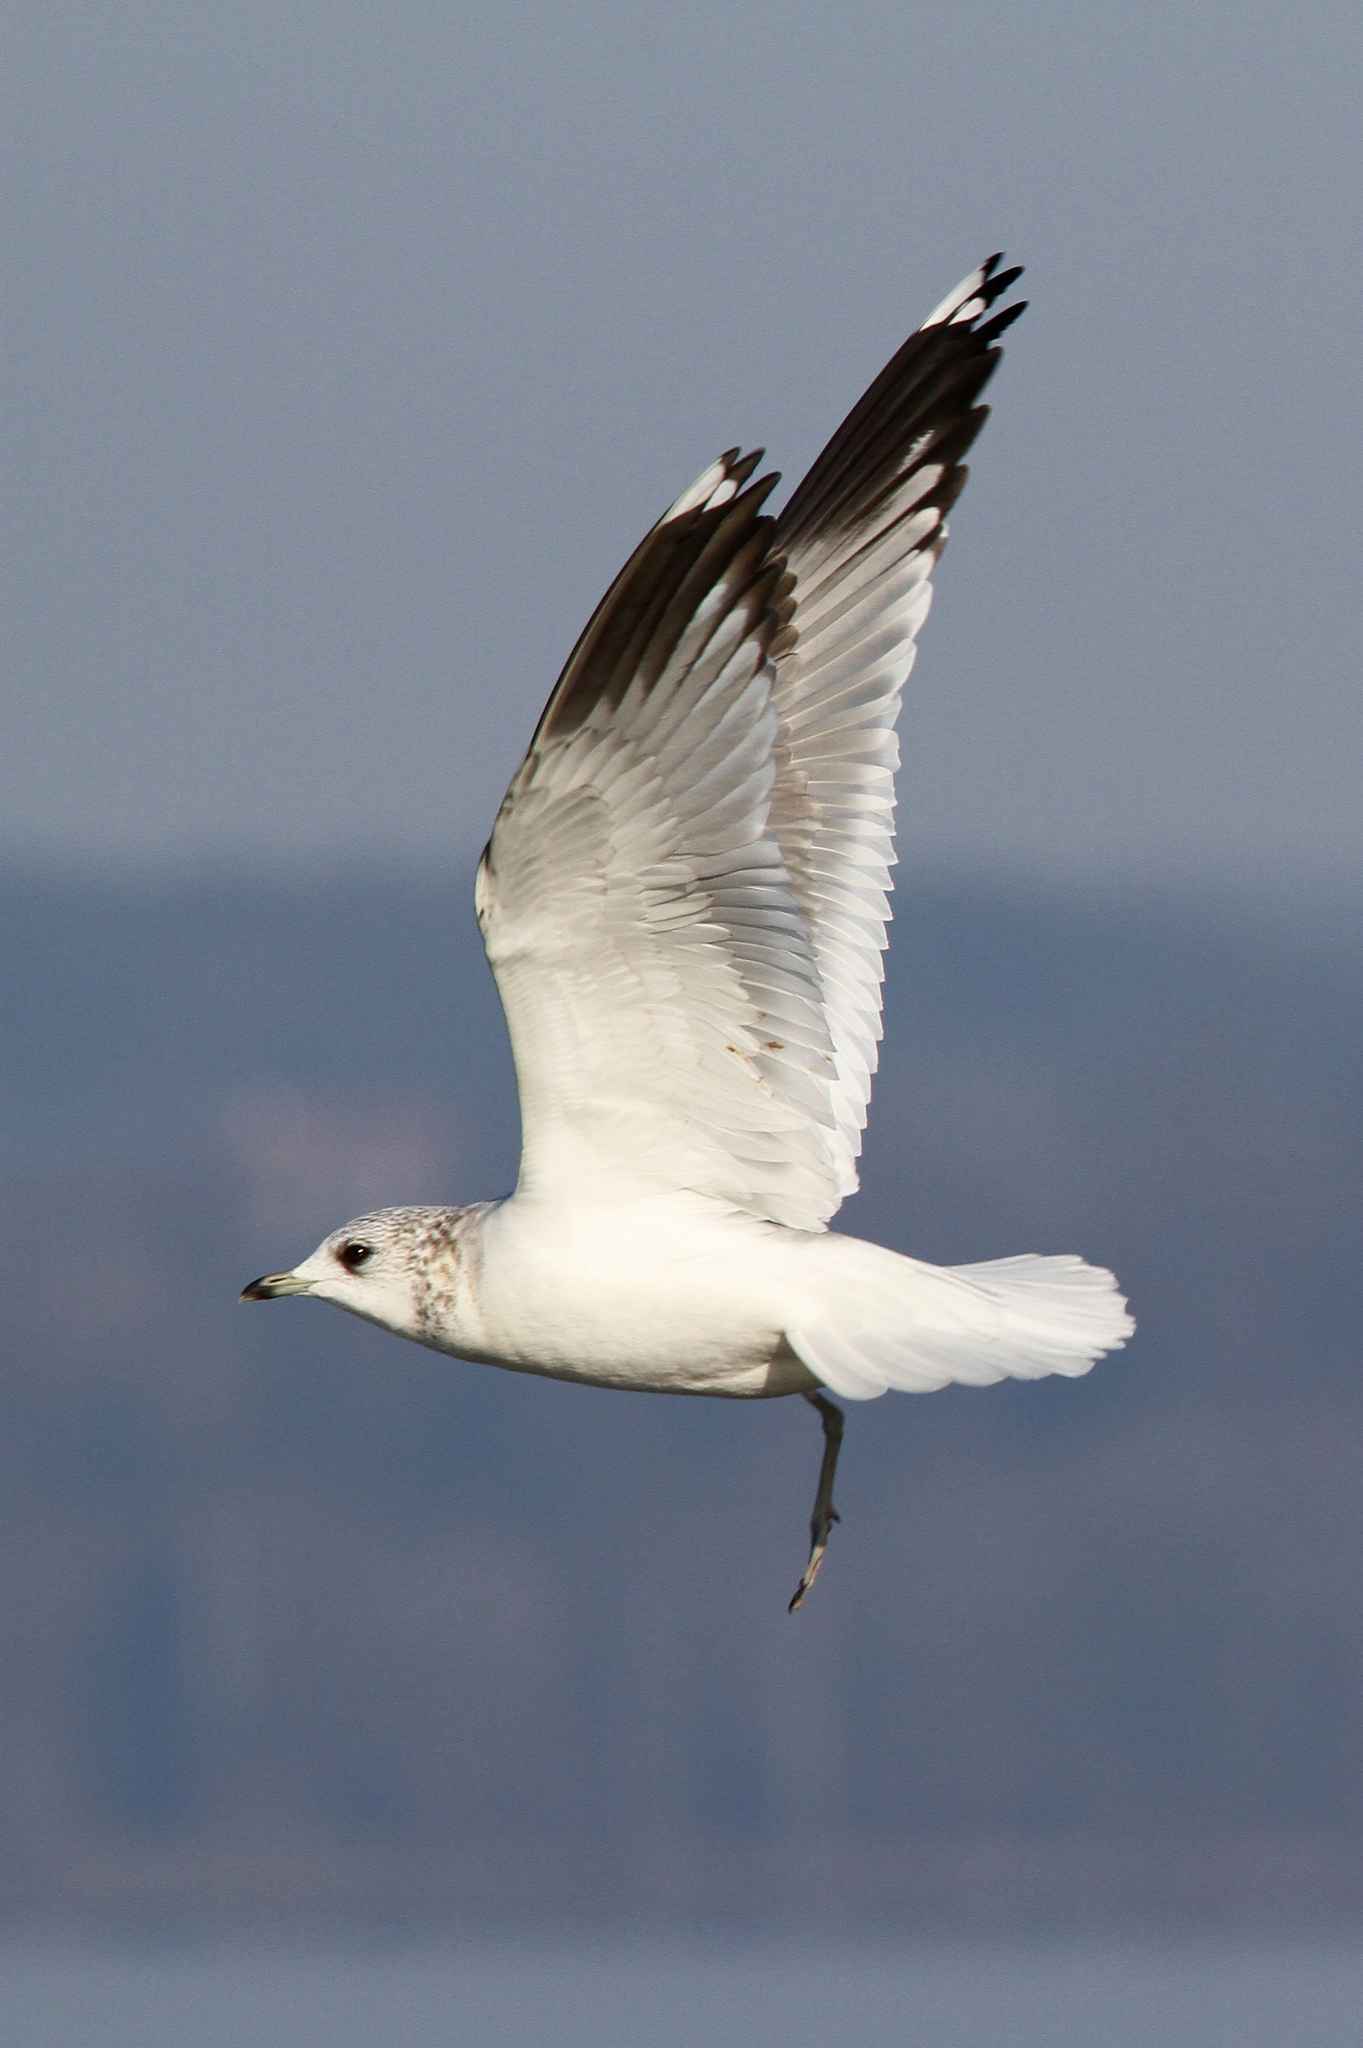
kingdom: Animalia
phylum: Chordata
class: Aves
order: Charadriiformes
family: Laridae
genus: Larus
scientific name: Larus canus
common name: Mew gull
